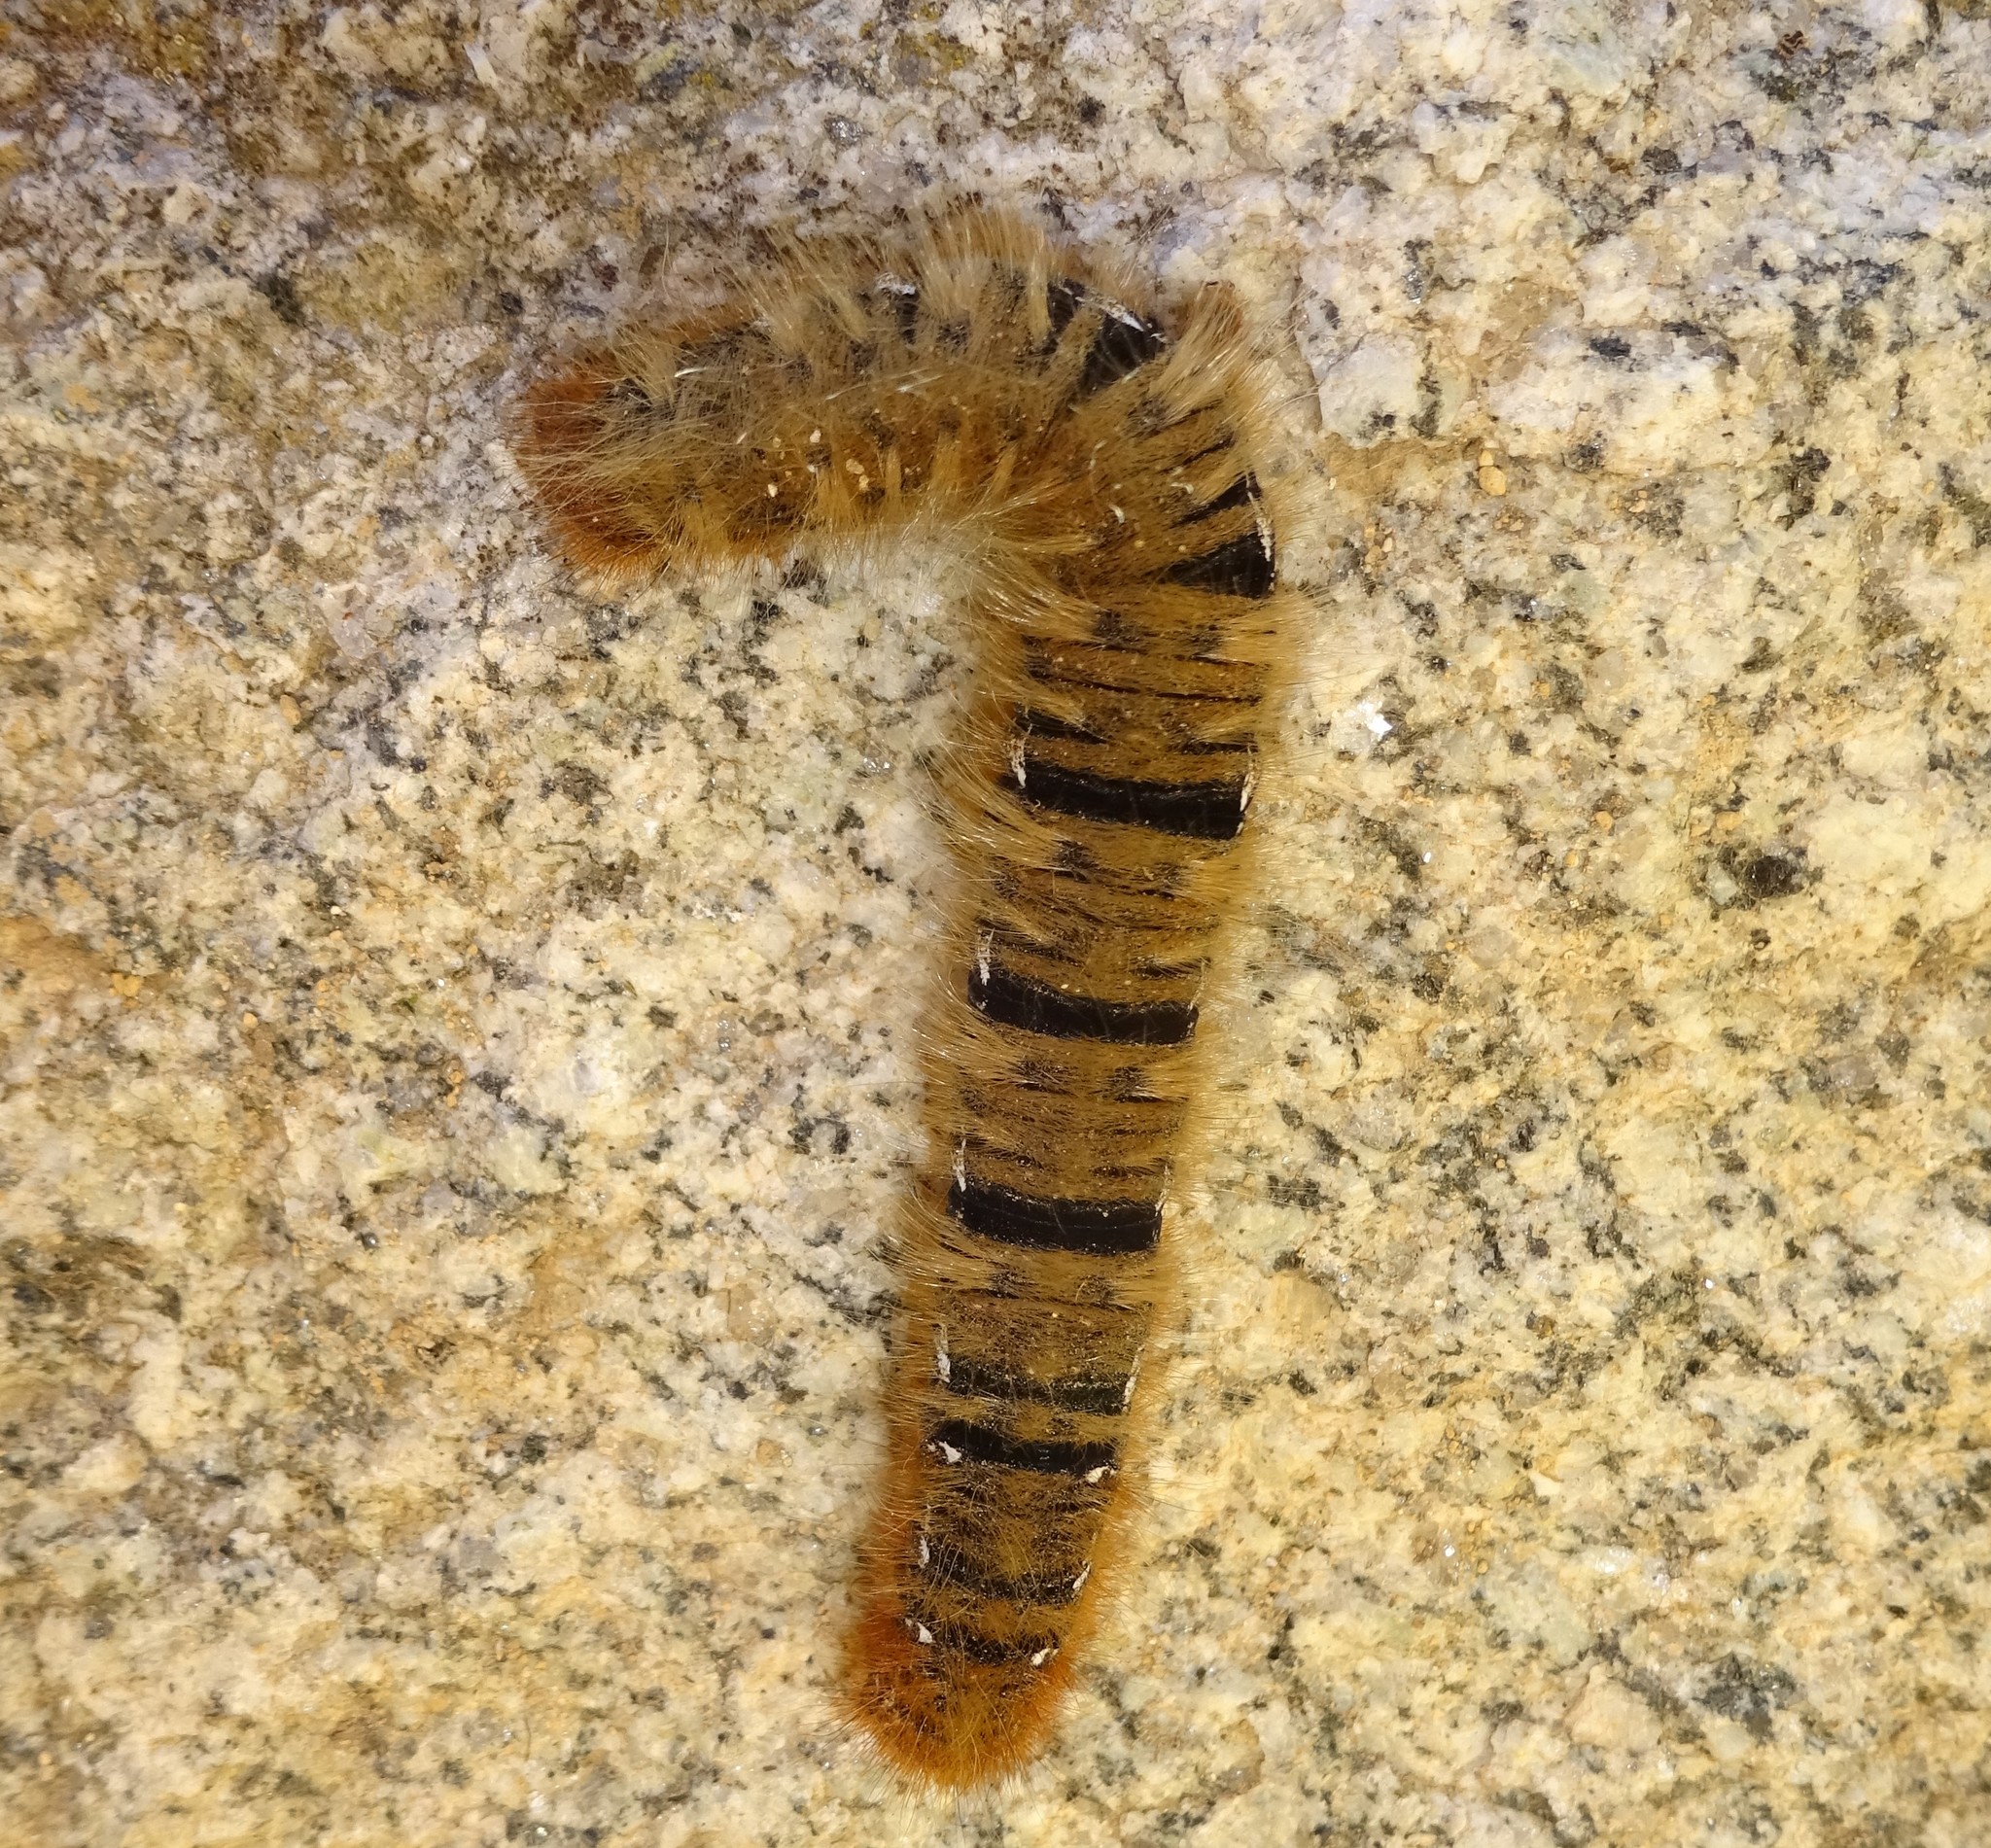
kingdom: Animalia
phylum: Arthropoda
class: Insecta
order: Lepidoptera
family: Lasiocampidae
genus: Lasiocampa
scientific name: Lasiocampa quercus
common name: Oak eggar
